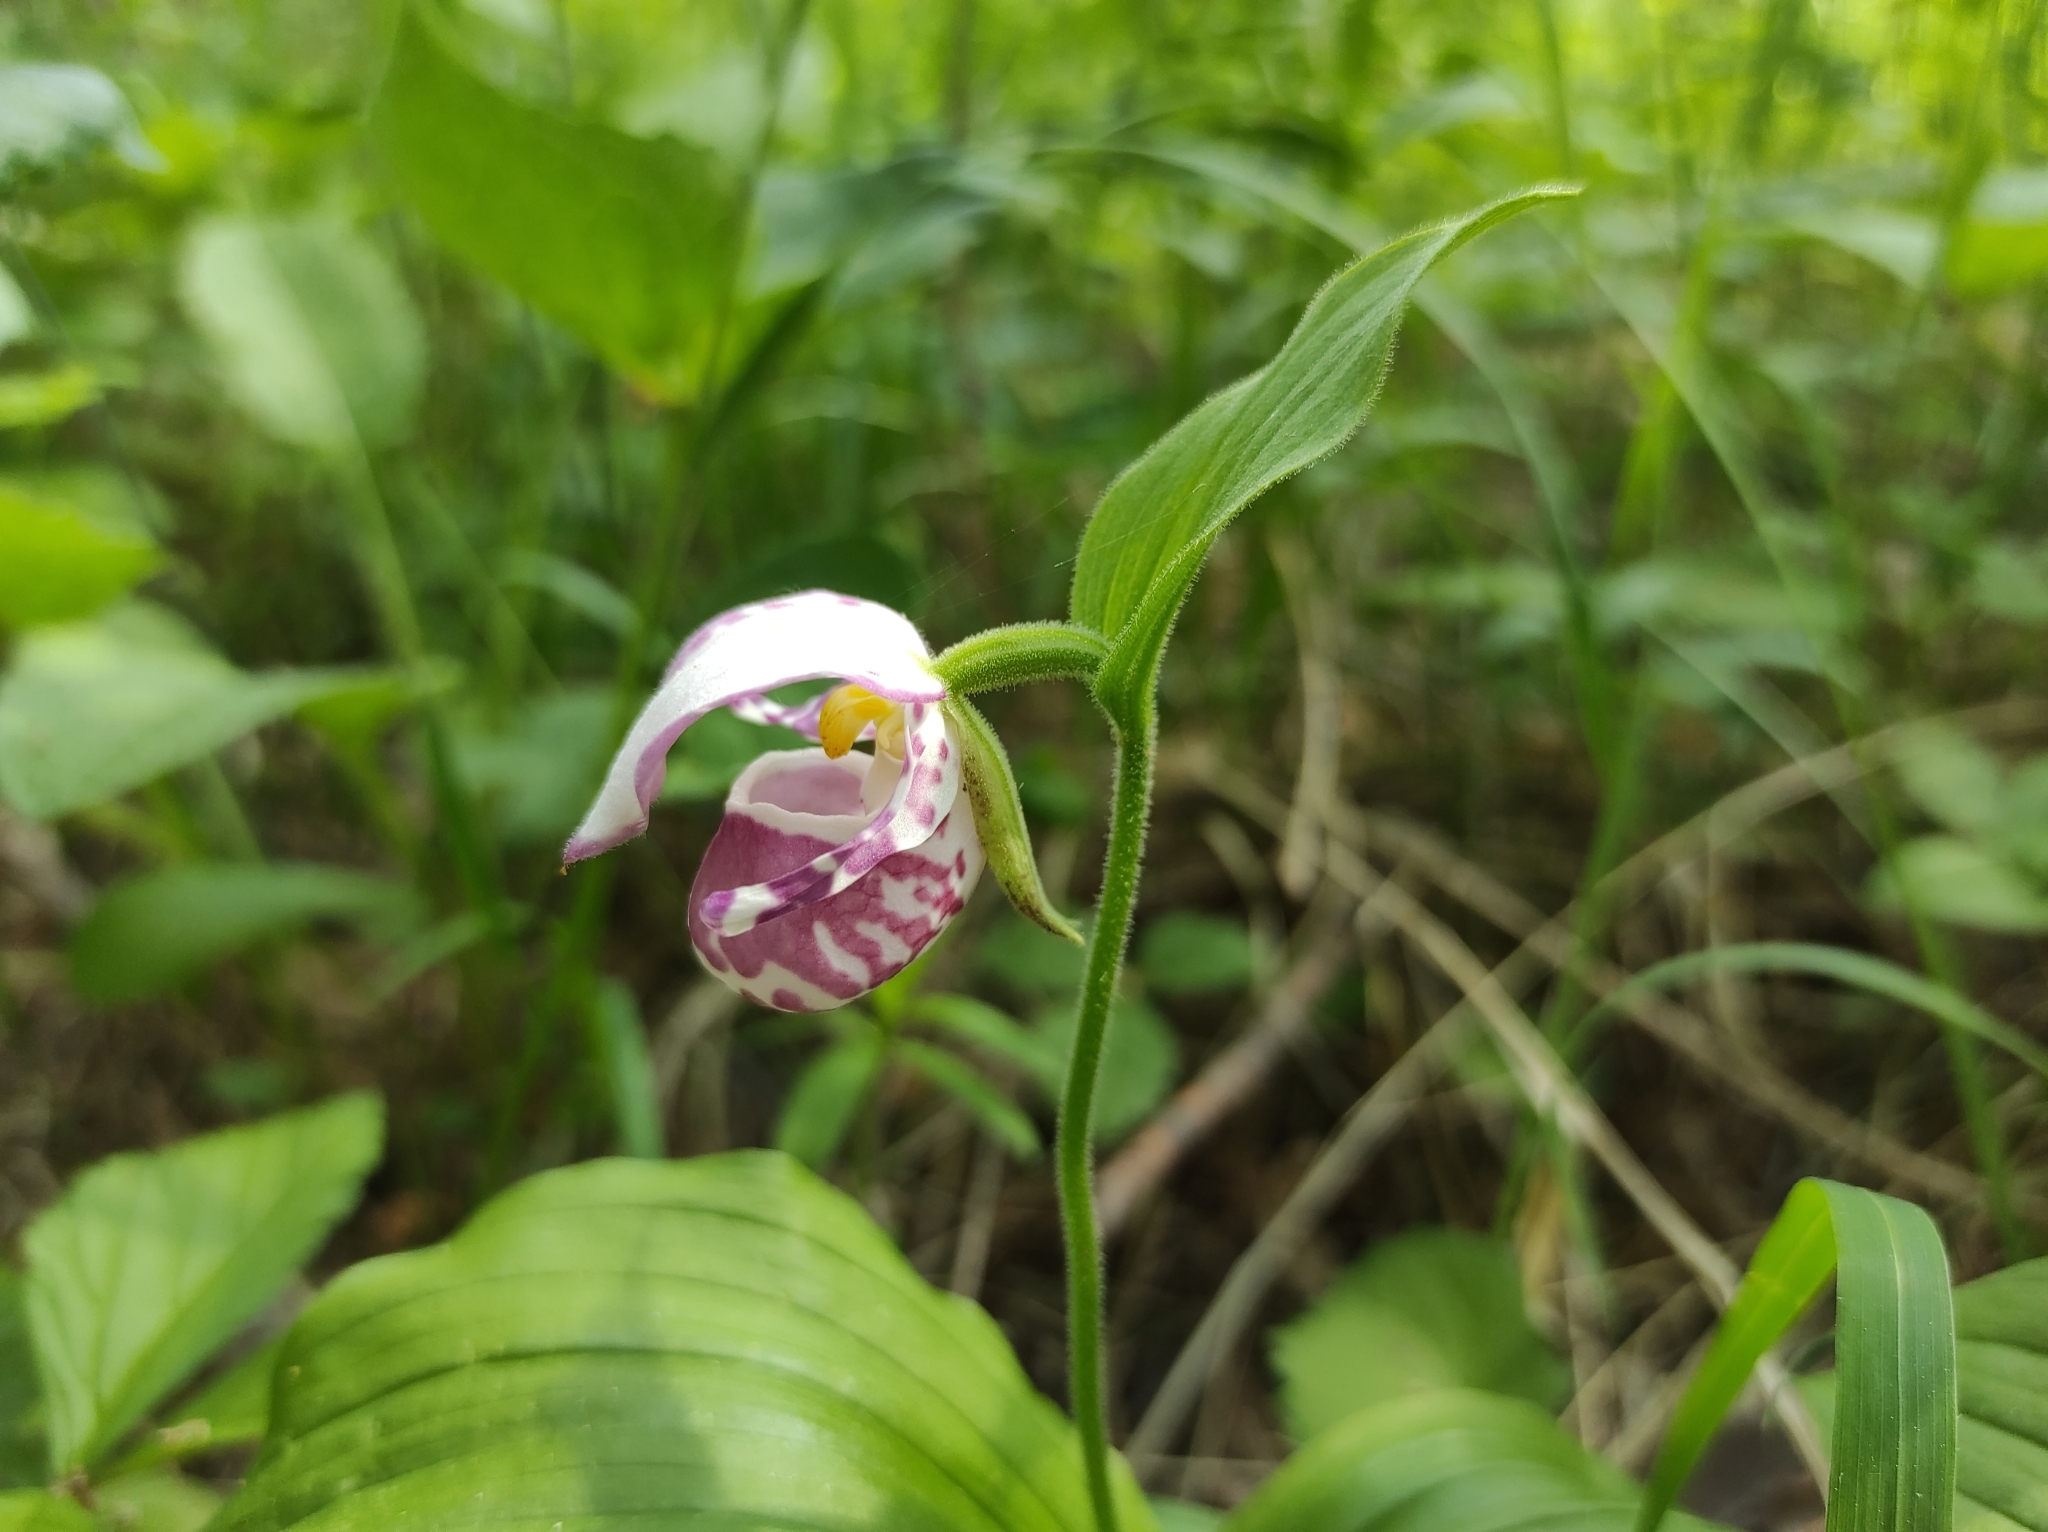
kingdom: Plantae
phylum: Tracheophyta
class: Liliopsida
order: Asparagales
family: Orchidaceae
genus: Cypripedium
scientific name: Cypripedium guttatum
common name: Pink lady slipper
